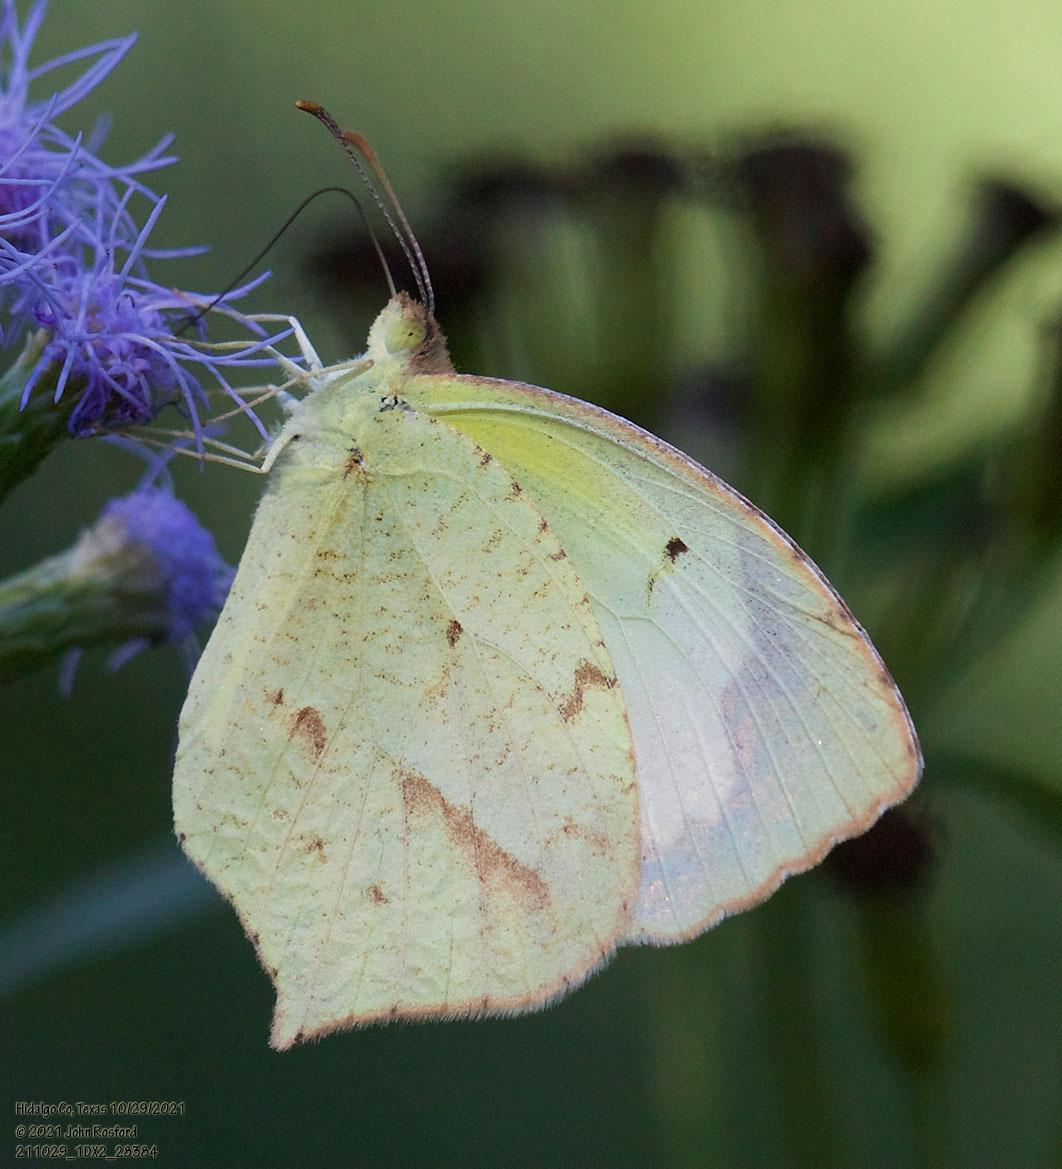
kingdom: Animalia
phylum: Arthropoda
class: Insecta
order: Lepidoptera
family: Pieridae
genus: Abaeis
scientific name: Abaeis mexicana
